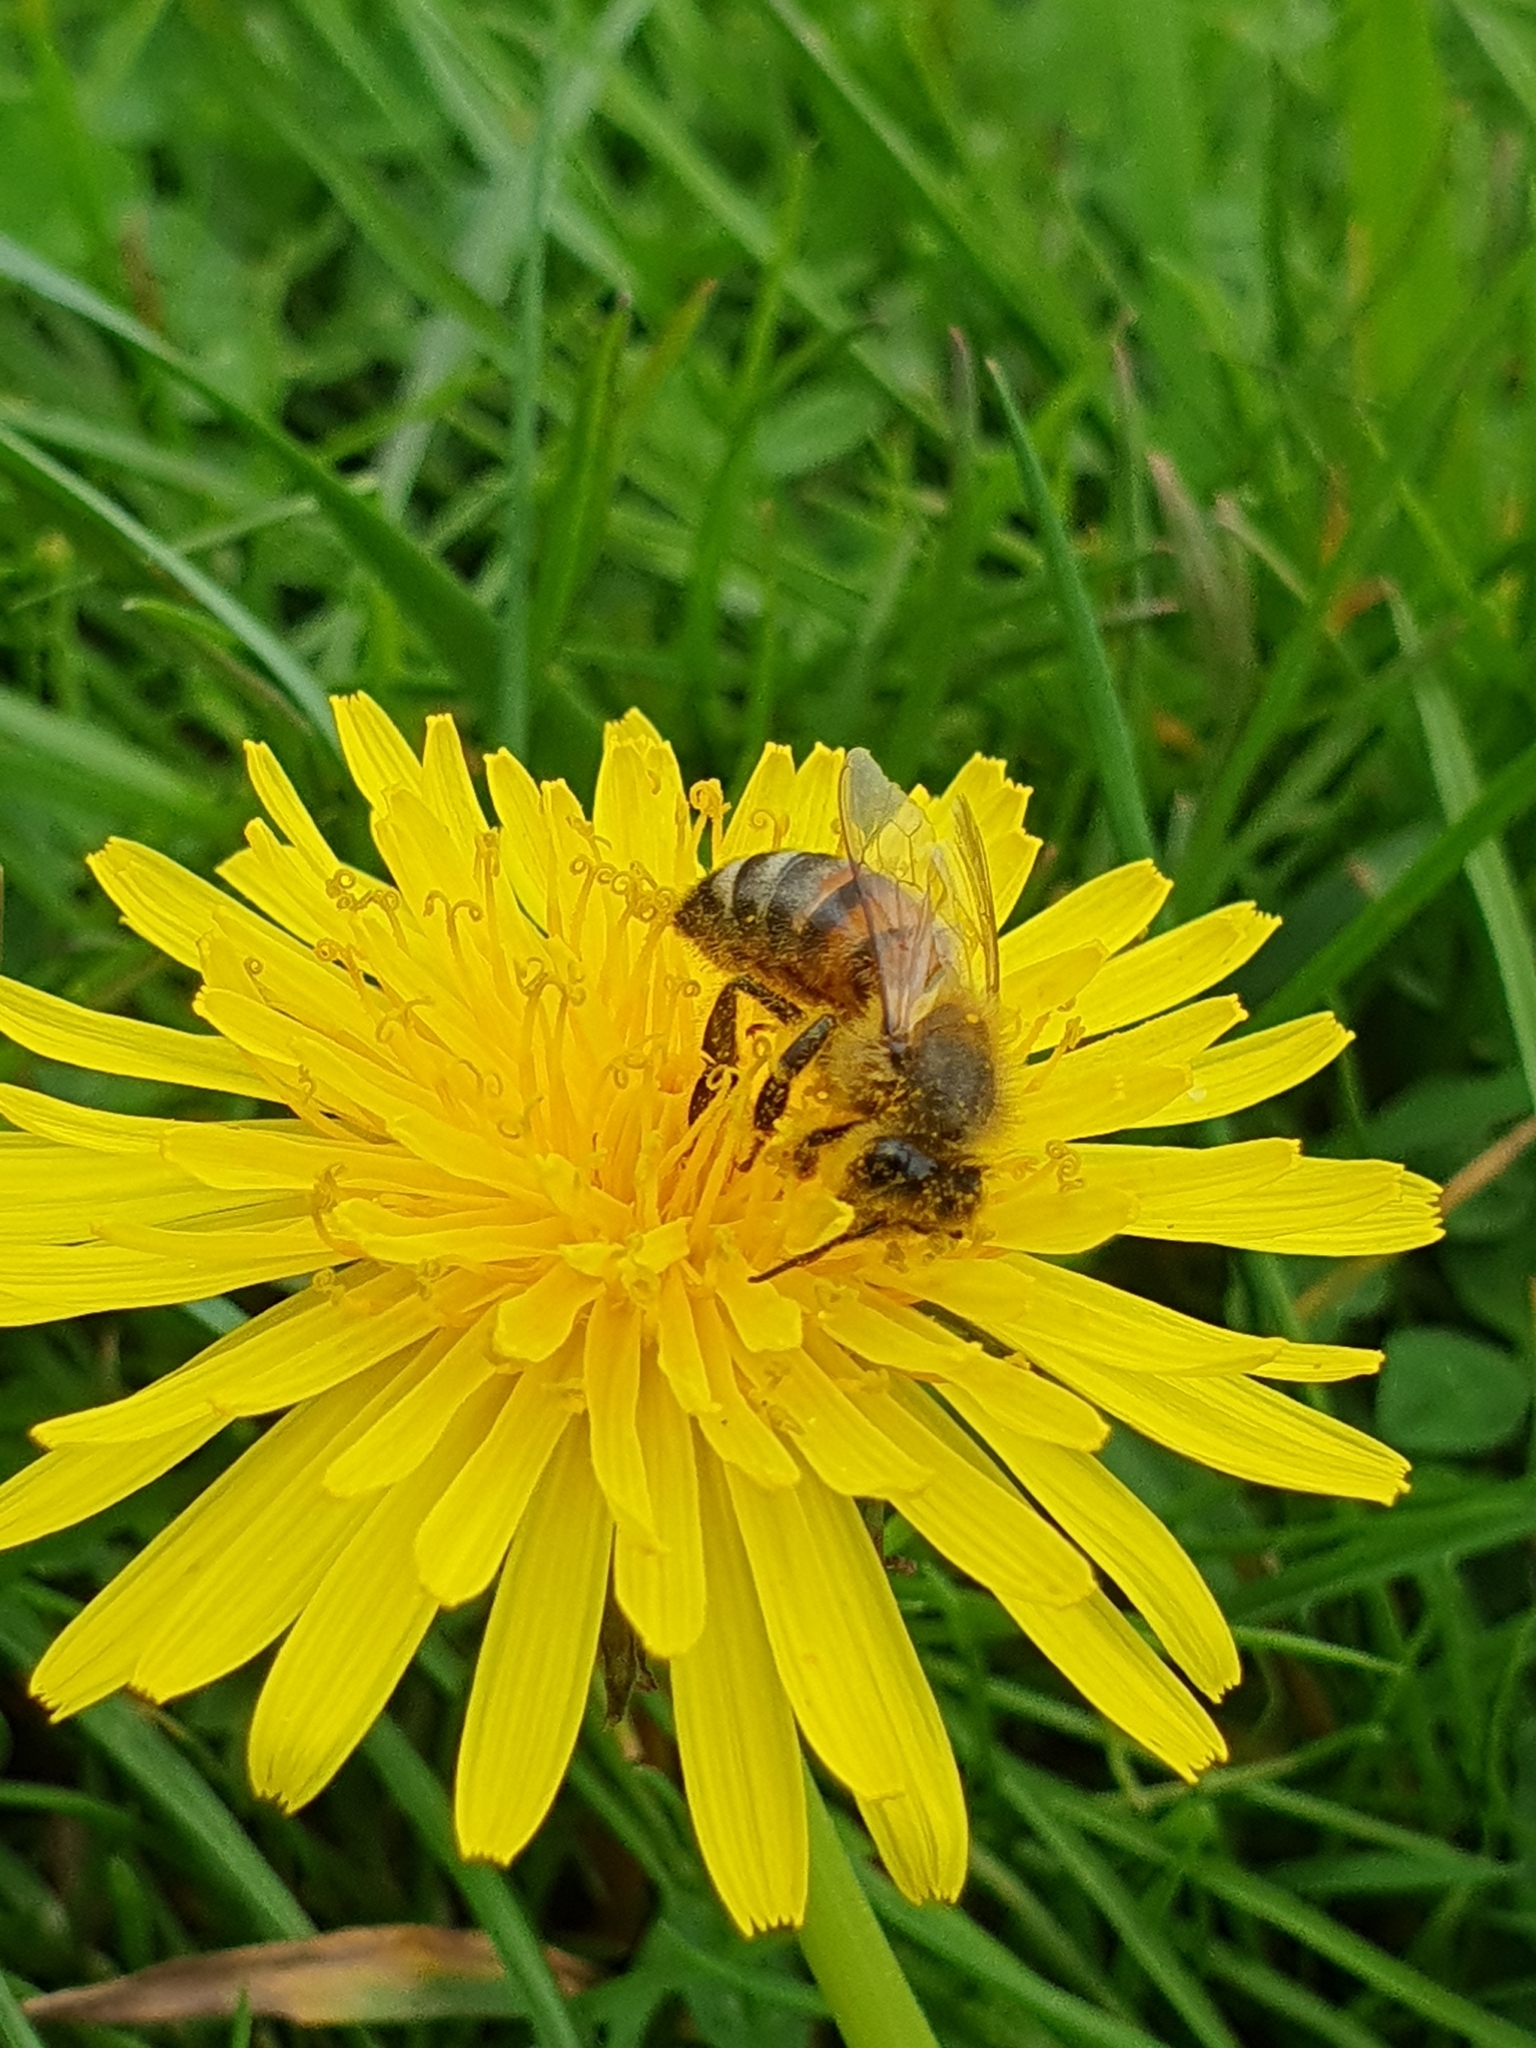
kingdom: Animalia
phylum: Arthropoda
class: Insecta
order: Hymenoptera
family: Apidae
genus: Apis
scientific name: Apis mellifera
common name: Honey bee
